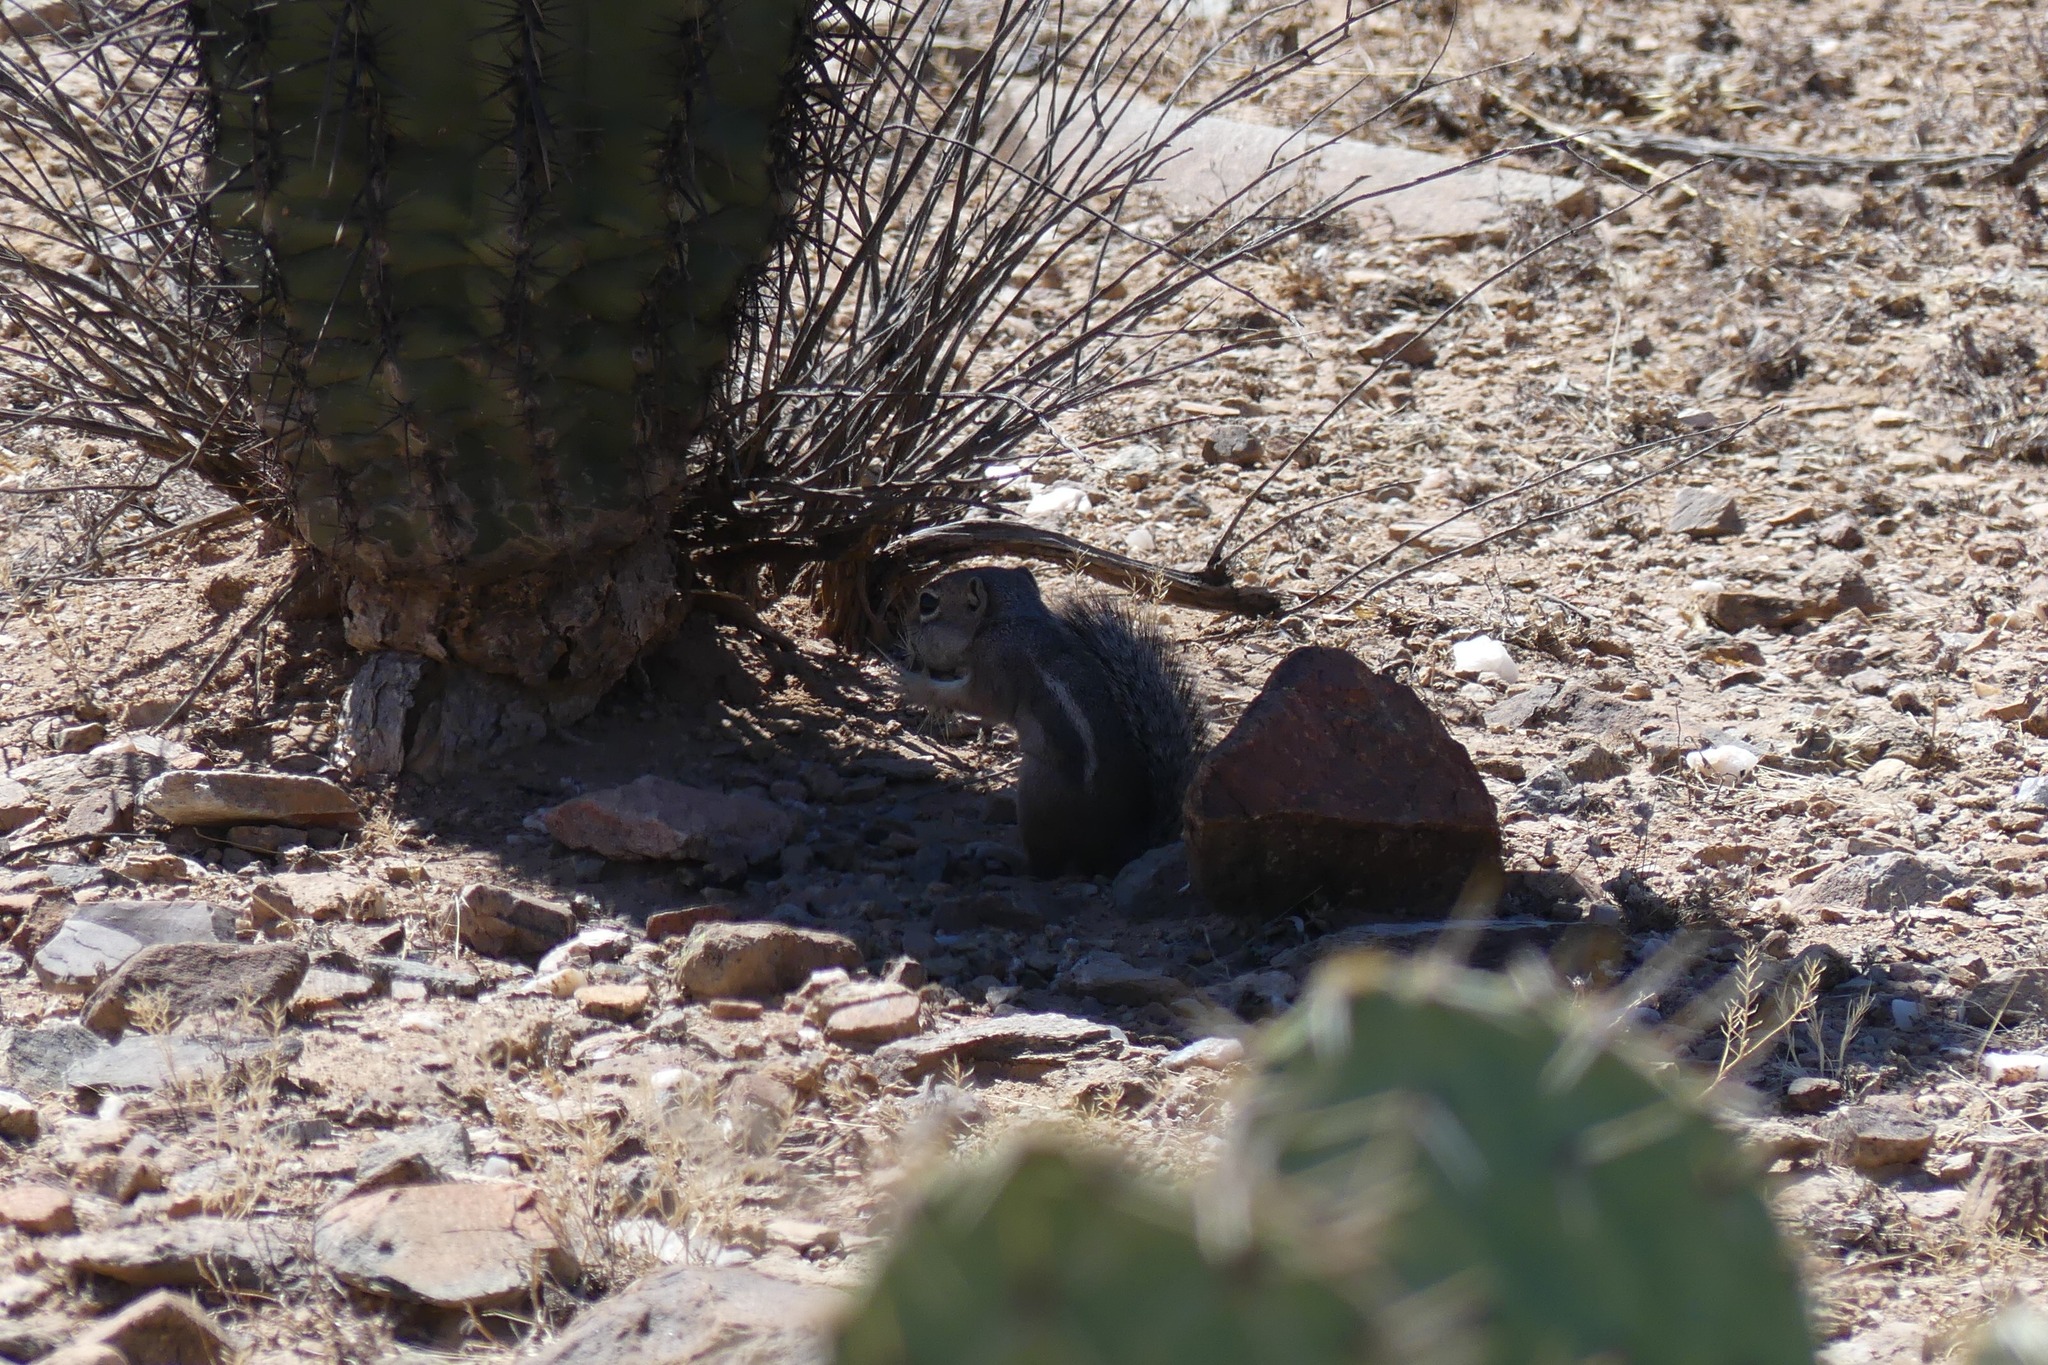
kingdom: Animalia
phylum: Chordata
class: Mammalia
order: Rodentia
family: Sciuridae
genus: Ammospermophilus
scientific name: Ammospermophilus harrisii
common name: Harris's antelope squirrel
